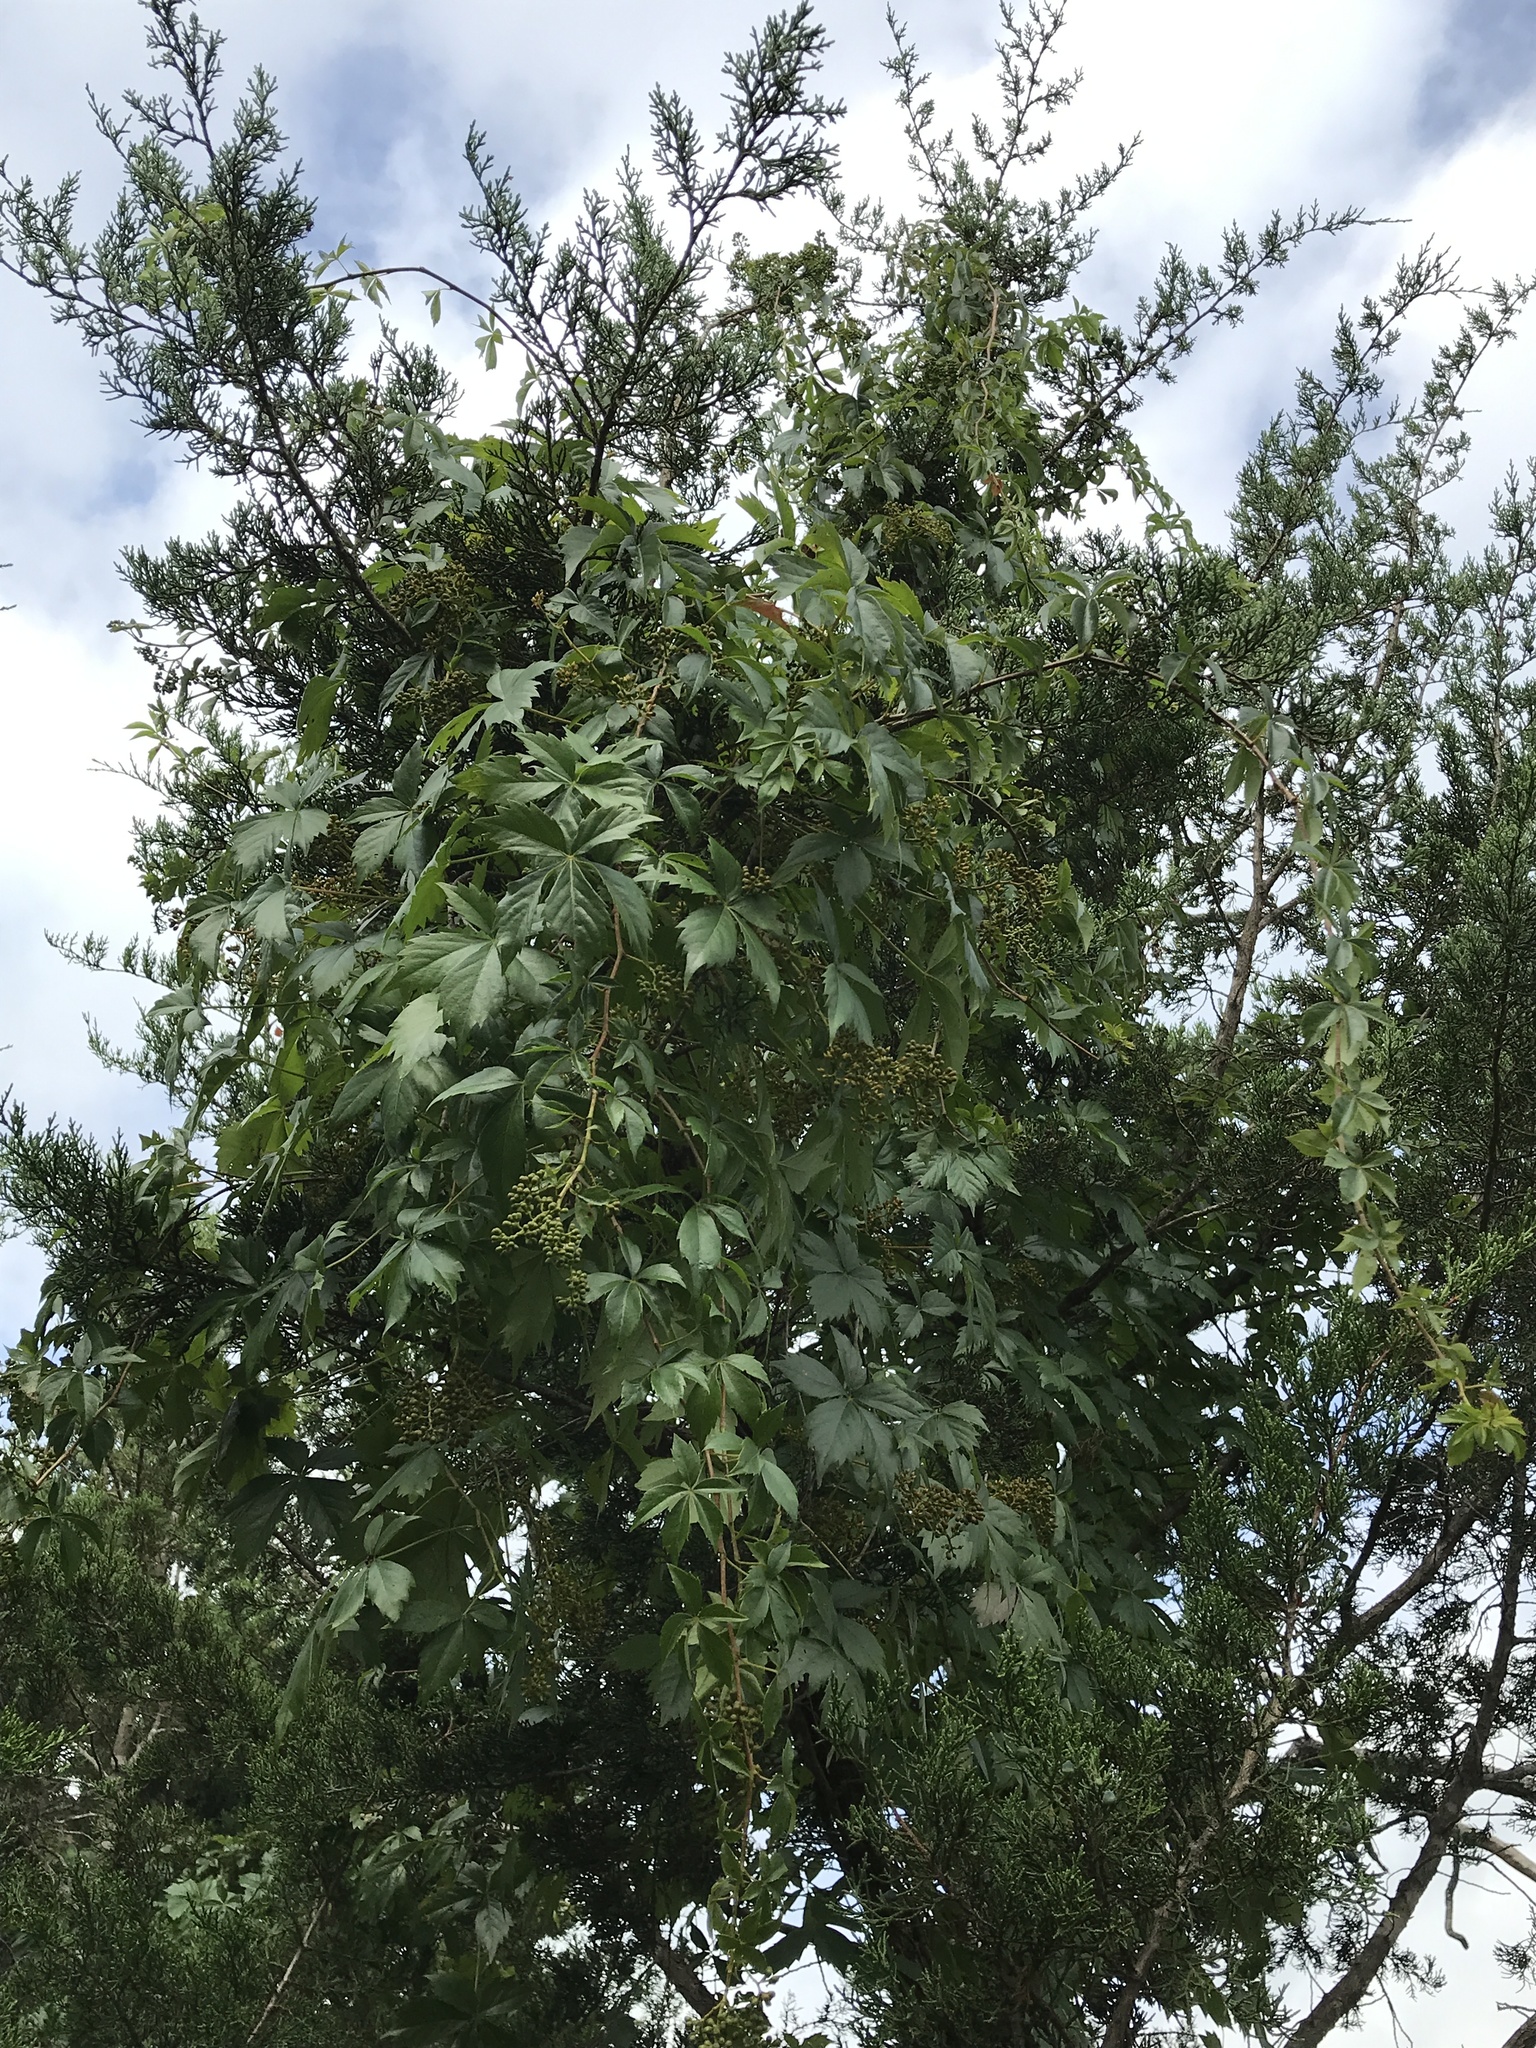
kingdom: Plantae
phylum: Tracheophyta
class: Magnoliopsida
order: Vitales
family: Vitaceae
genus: Parthenocissus
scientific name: Parthenocissus quinquefolia
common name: Virginia-creeper
